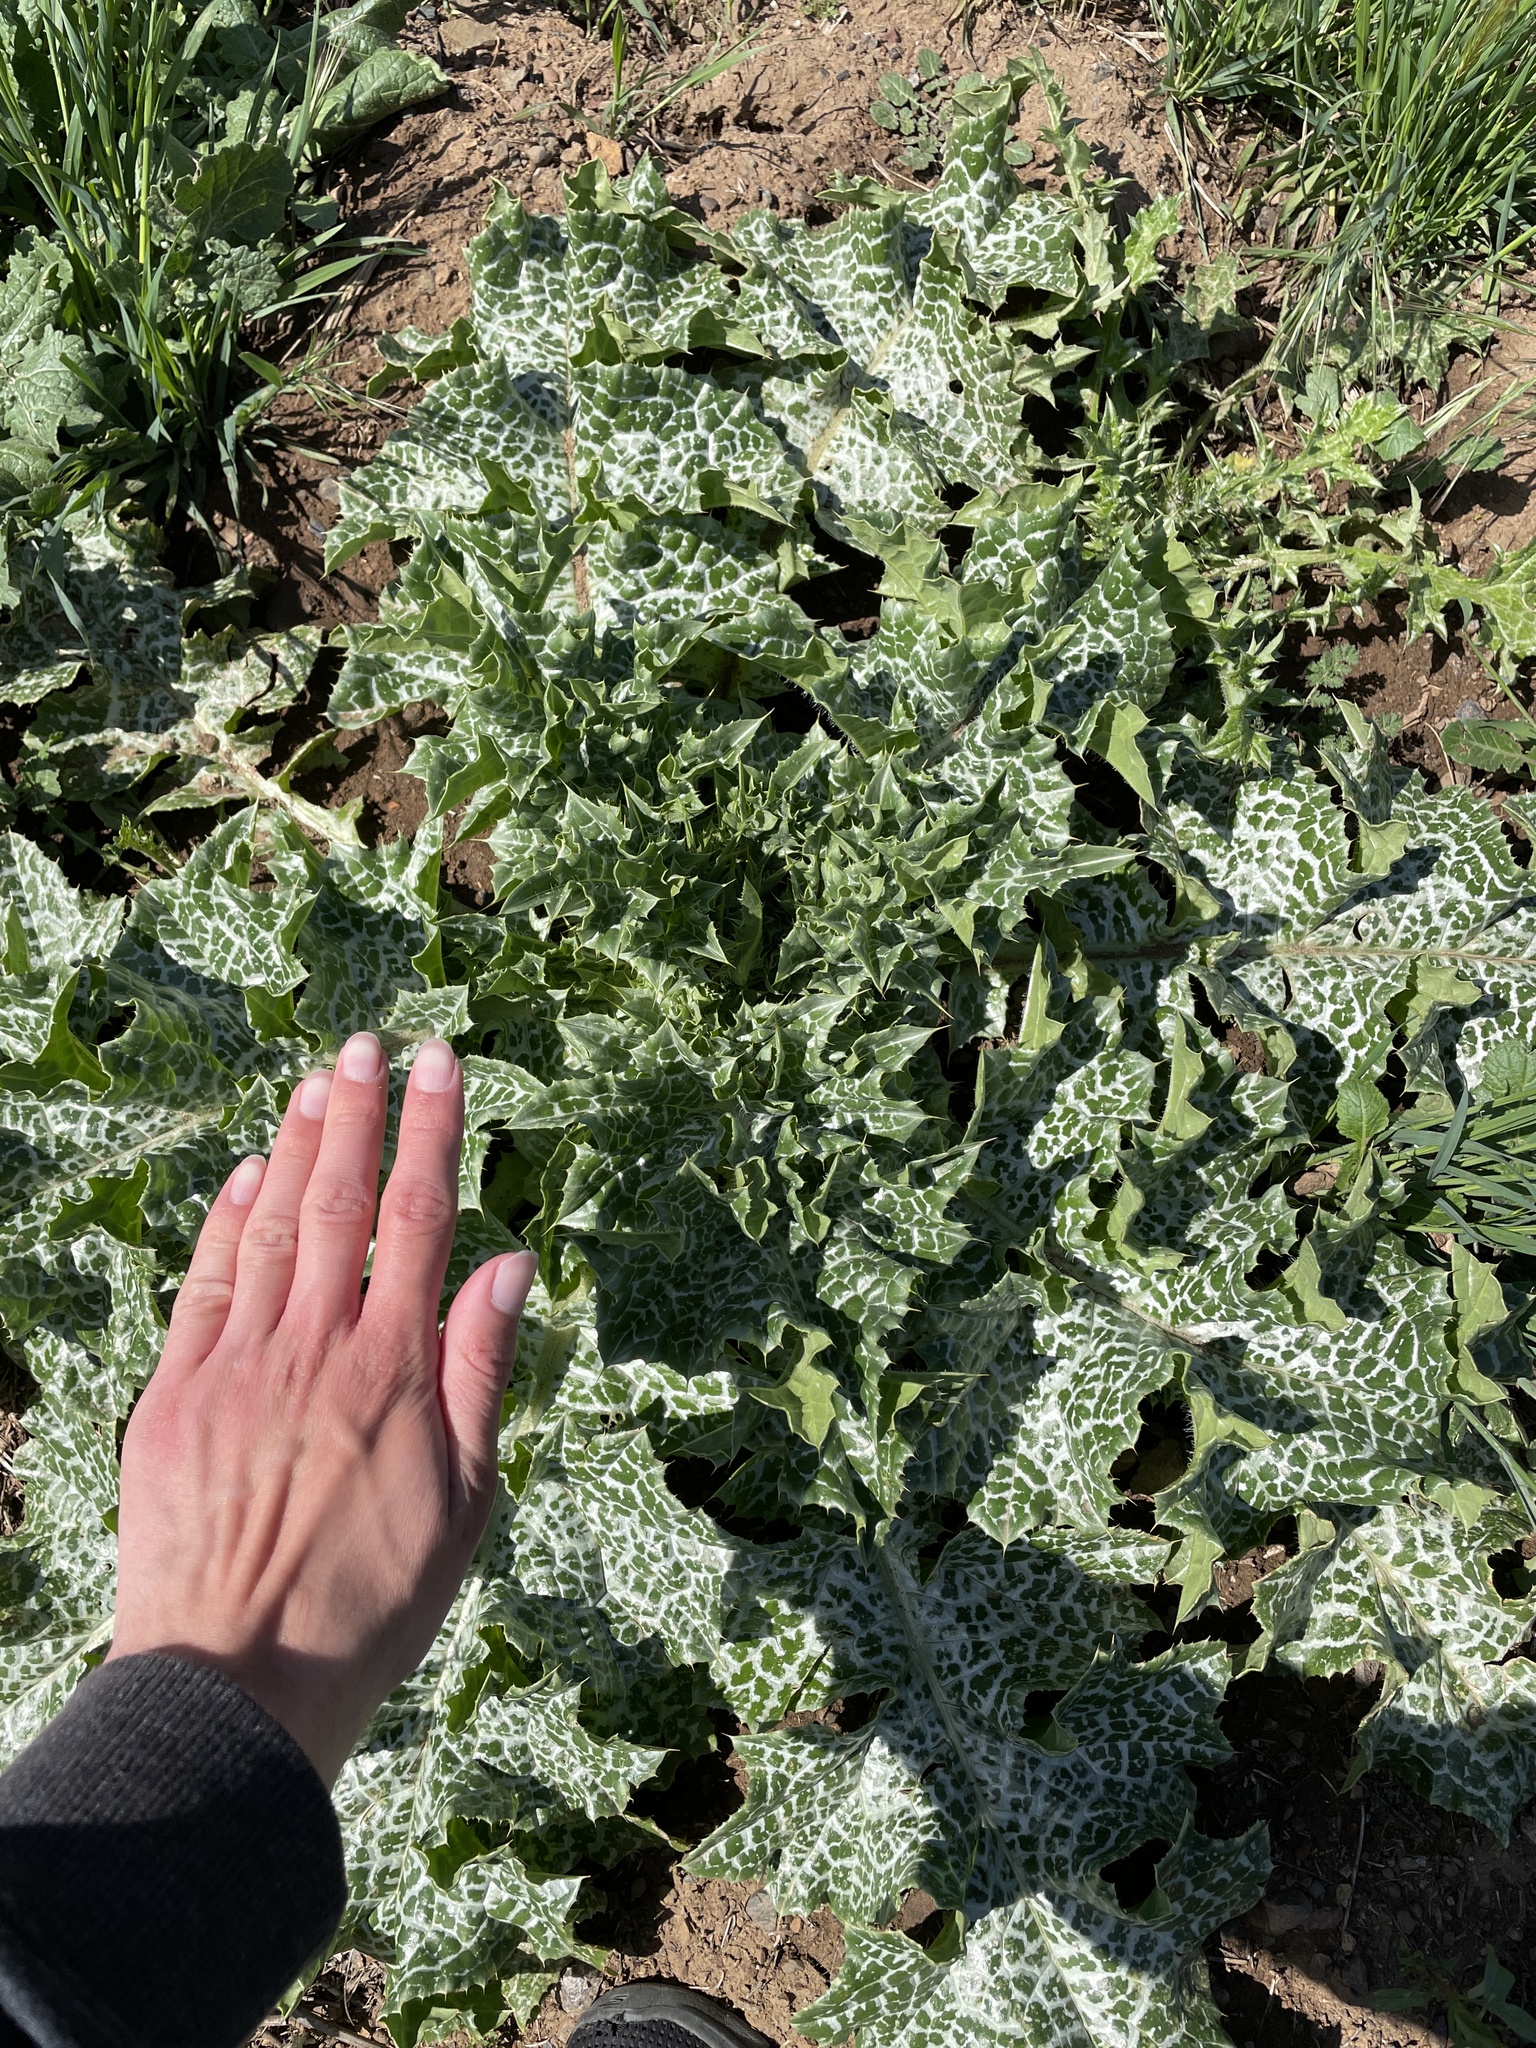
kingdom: Plantae
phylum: Tracheophyta
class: Magnoliopsida
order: Asterales
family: Asteraceae
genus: Silybum
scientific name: Silybum marianum
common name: Milk thistle
